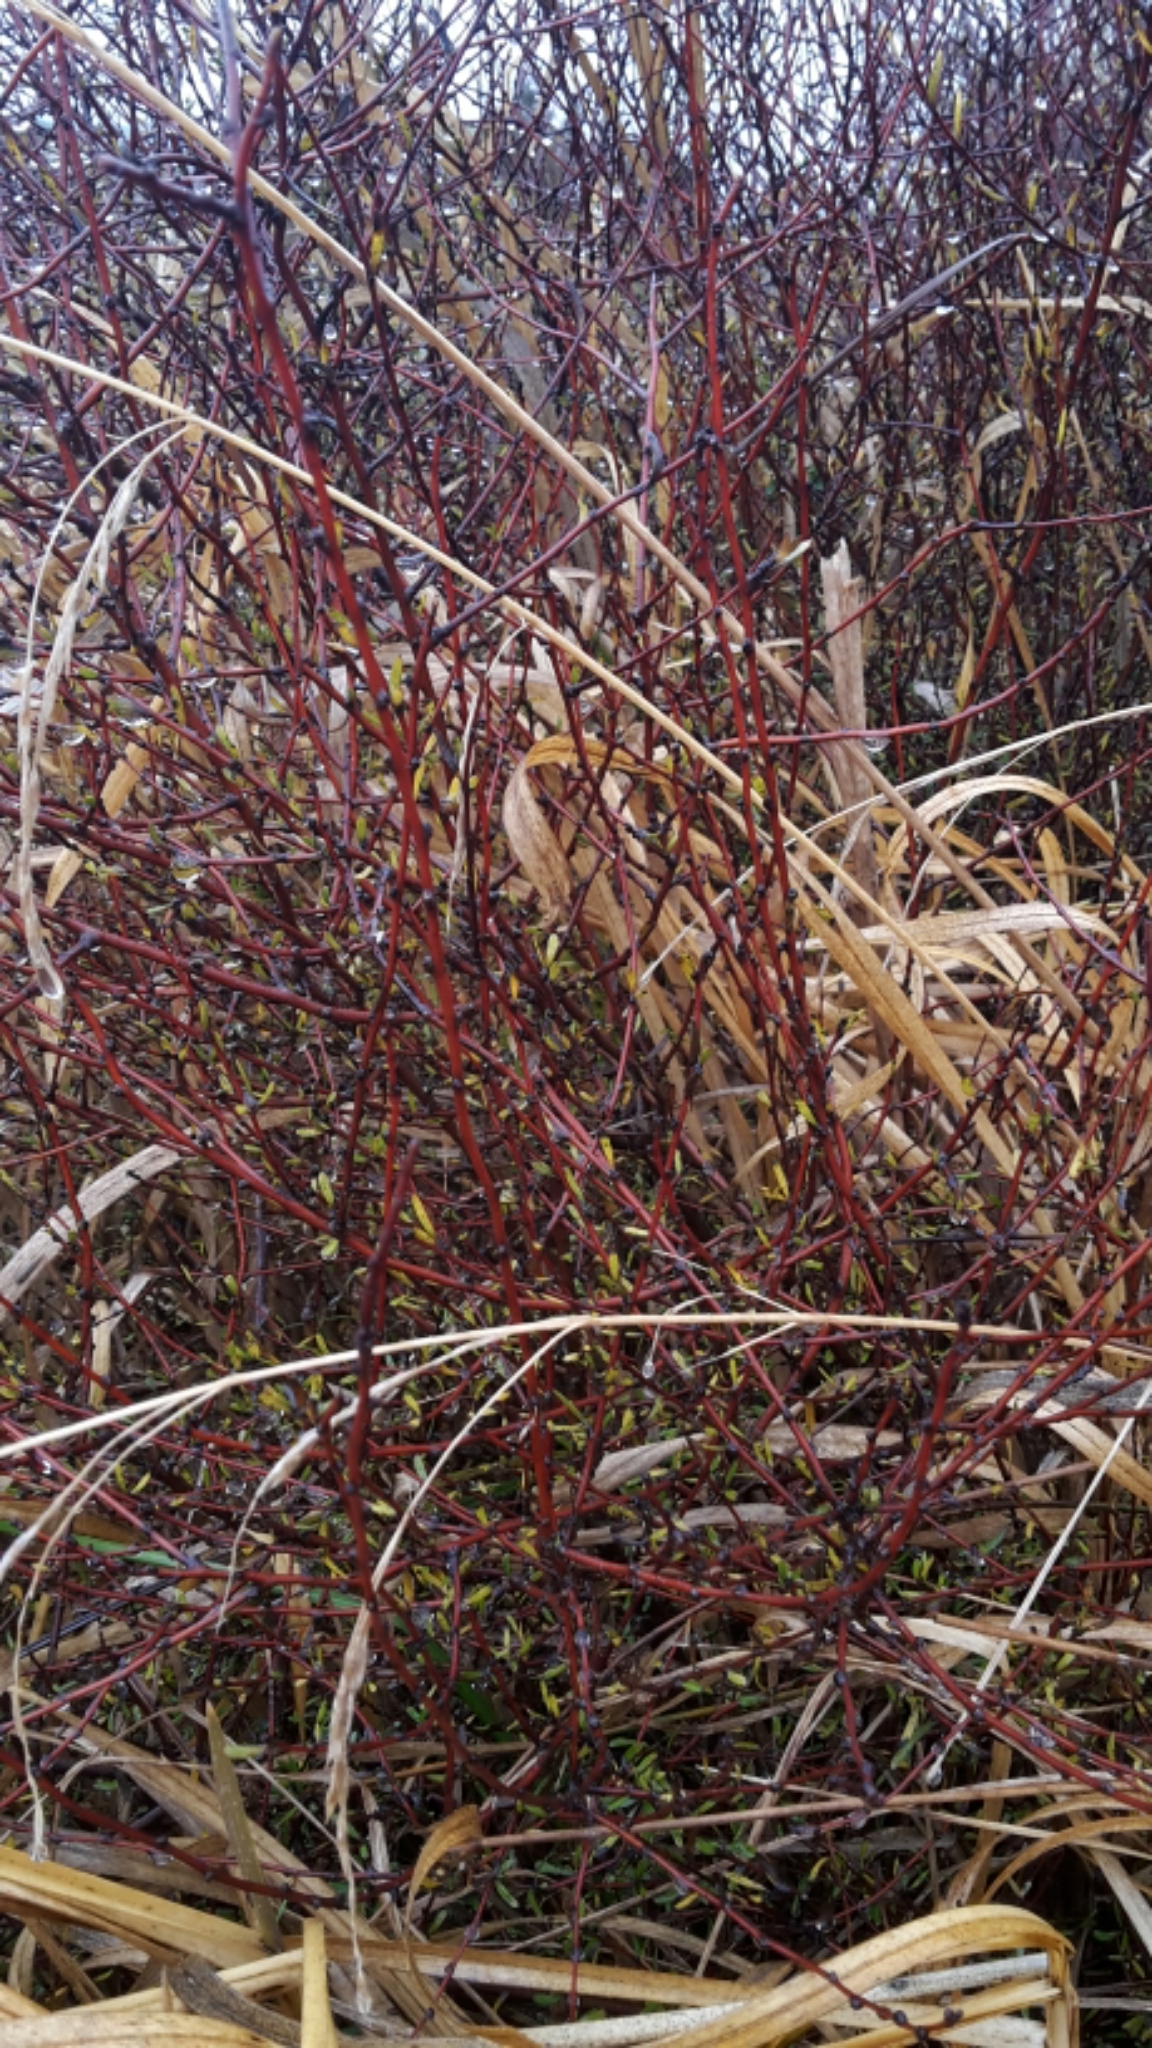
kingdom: Plantae
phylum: Tracheophyta
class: Magnoliopsida
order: Malvales
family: Malvaceae
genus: Plagianthus
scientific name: Plagianthus divaricatus
